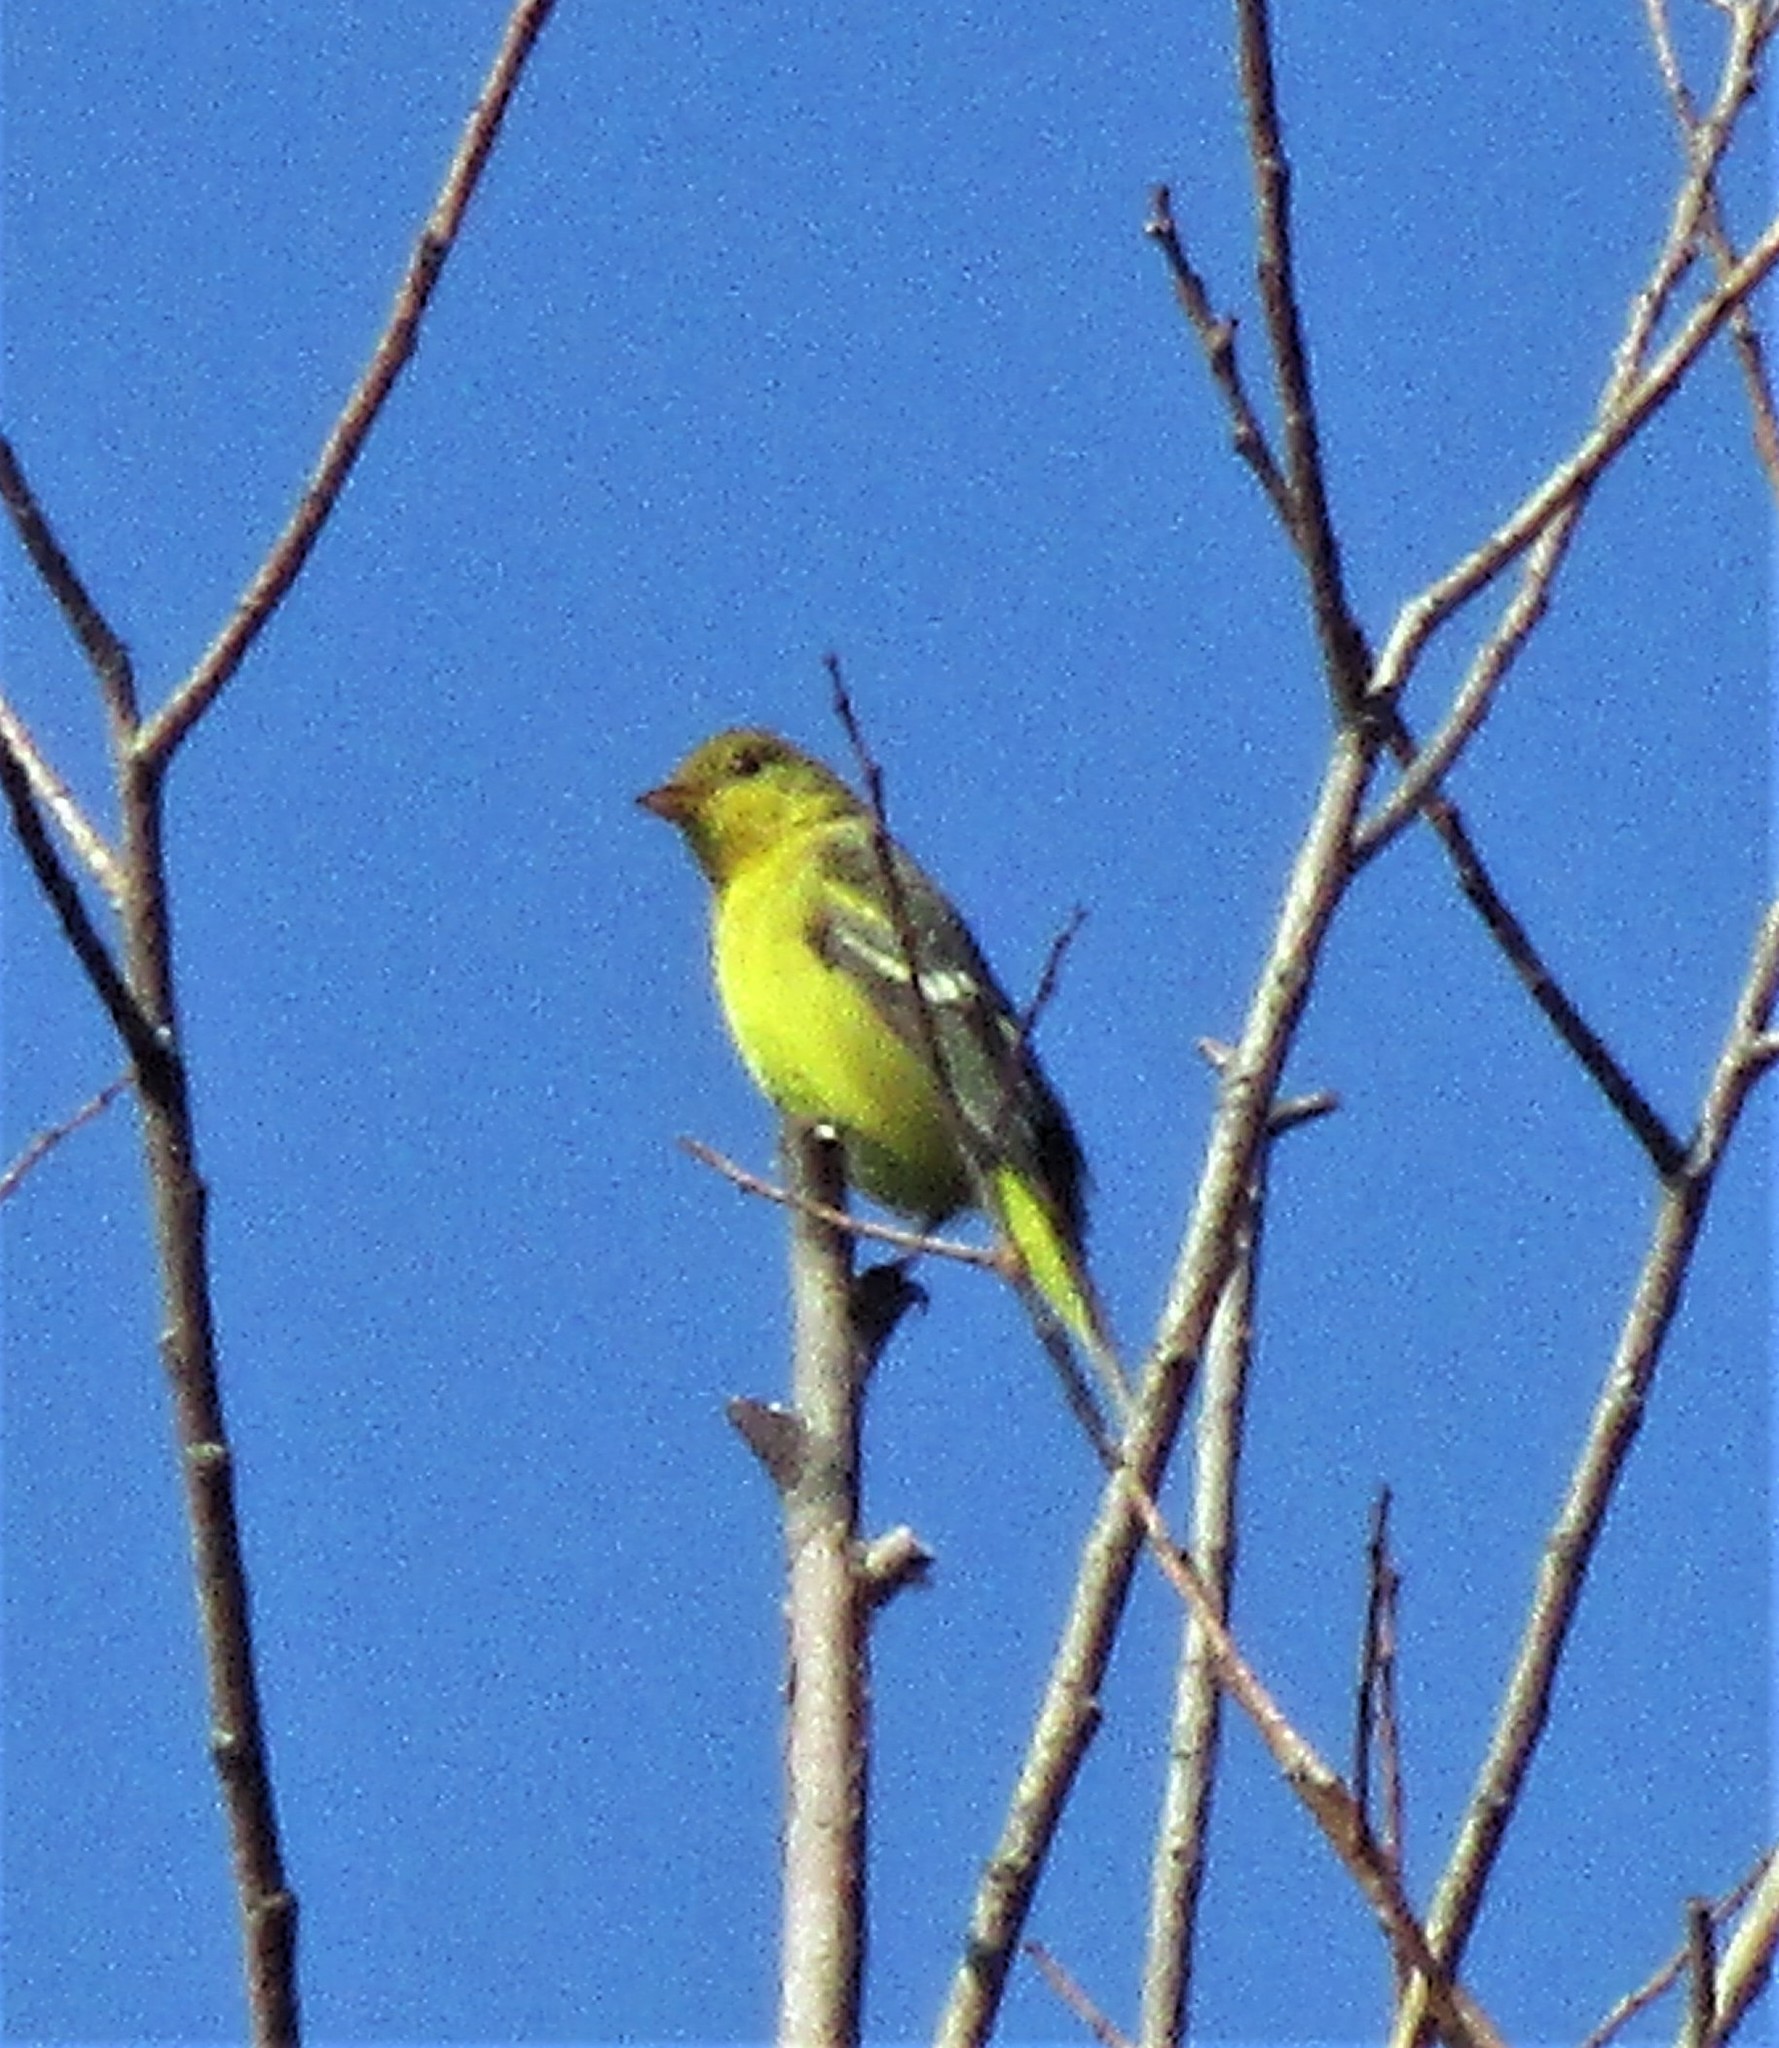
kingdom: Animalia
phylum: Chordata
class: Aves
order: Passeriformes
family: Cardinalidae
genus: Piranga
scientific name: Piranga ludoviciana
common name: Western tanager
